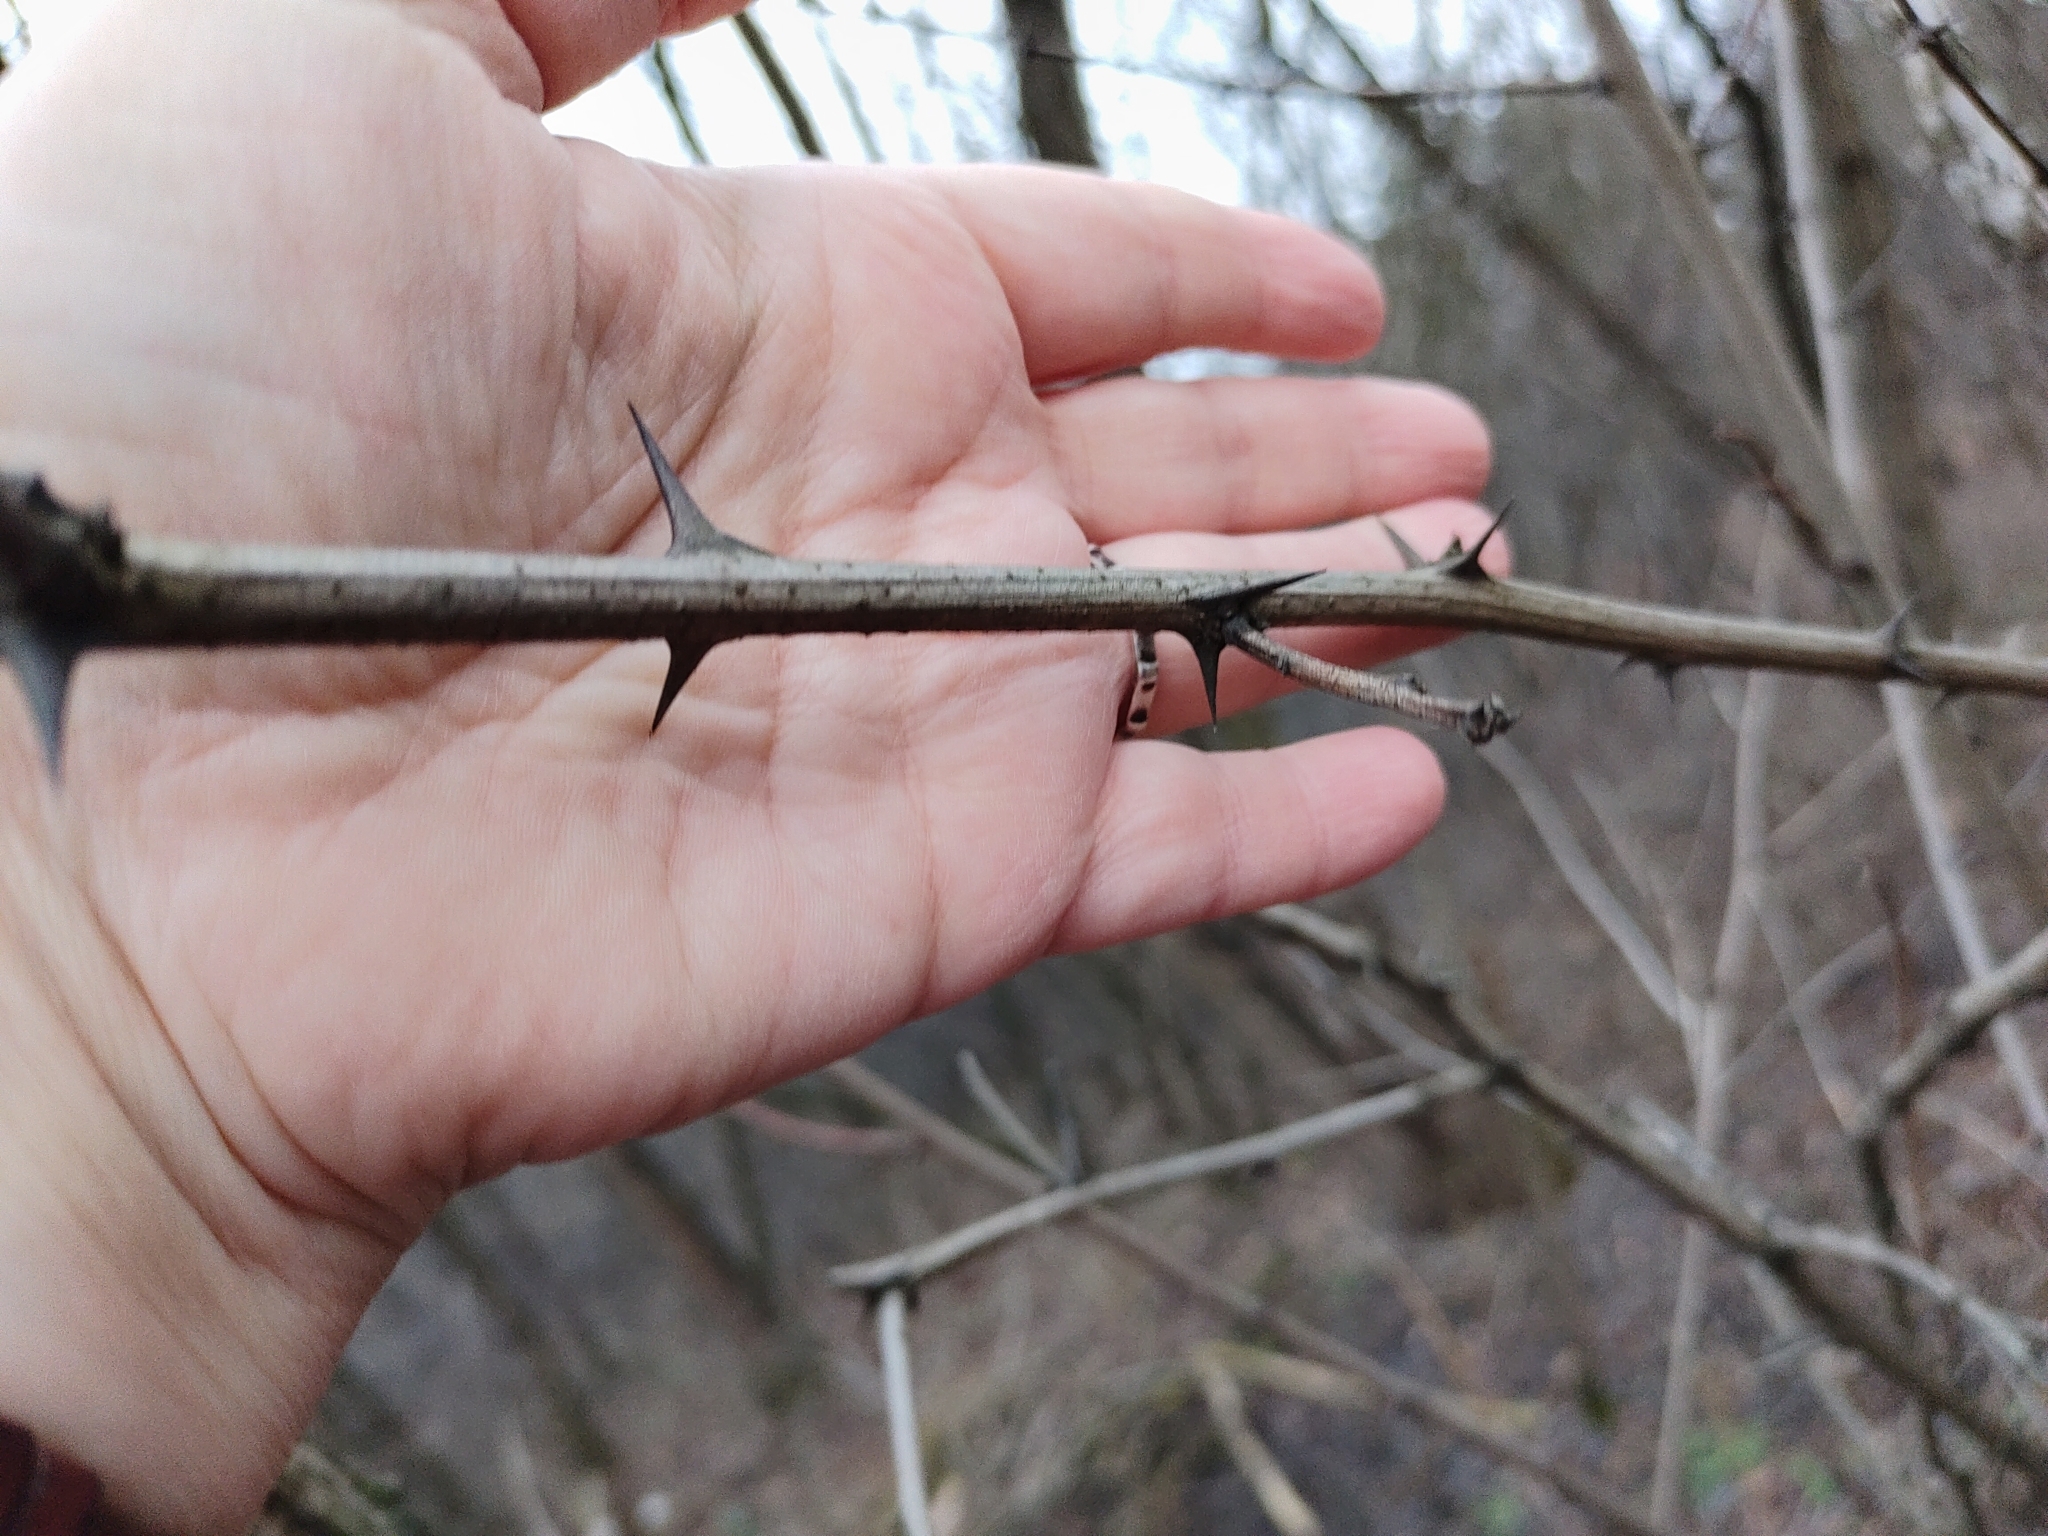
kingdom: Plantae
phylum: Tracheophyta
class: Magnoliopsida
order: Fabales
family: Fabaceae
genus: Robinia
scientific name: Robinia pseudoacacia
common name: Black locust
